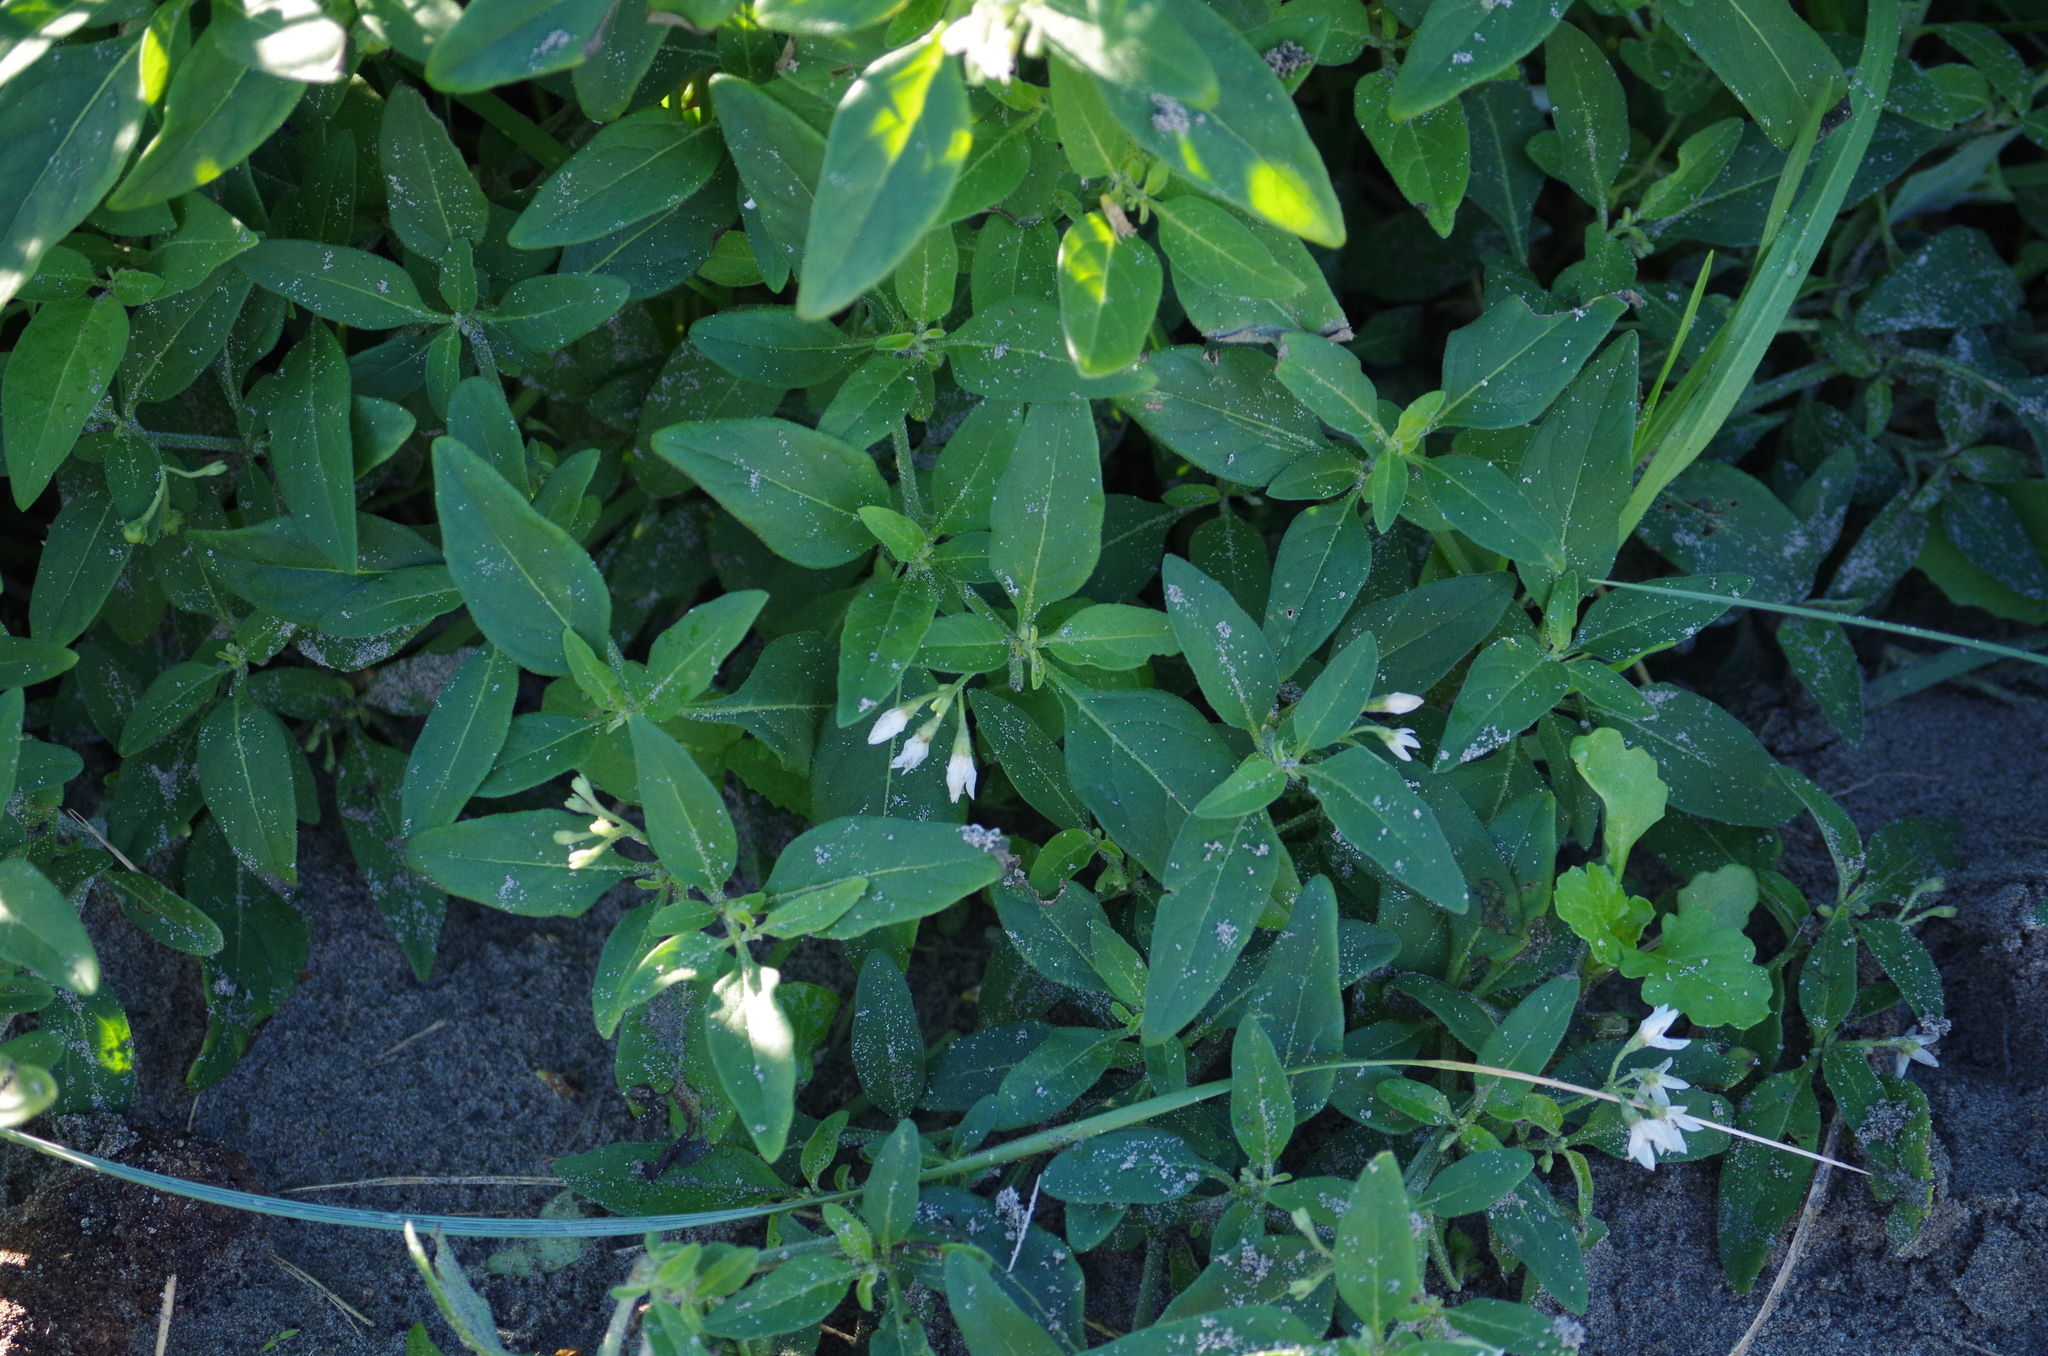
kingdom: Plantae
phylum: Tracheophyta
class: Magnoliopsida
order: Solanales
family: Solanaceae
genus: Solanum
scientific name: Solanum chenopodioides
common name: Tall nightshade
